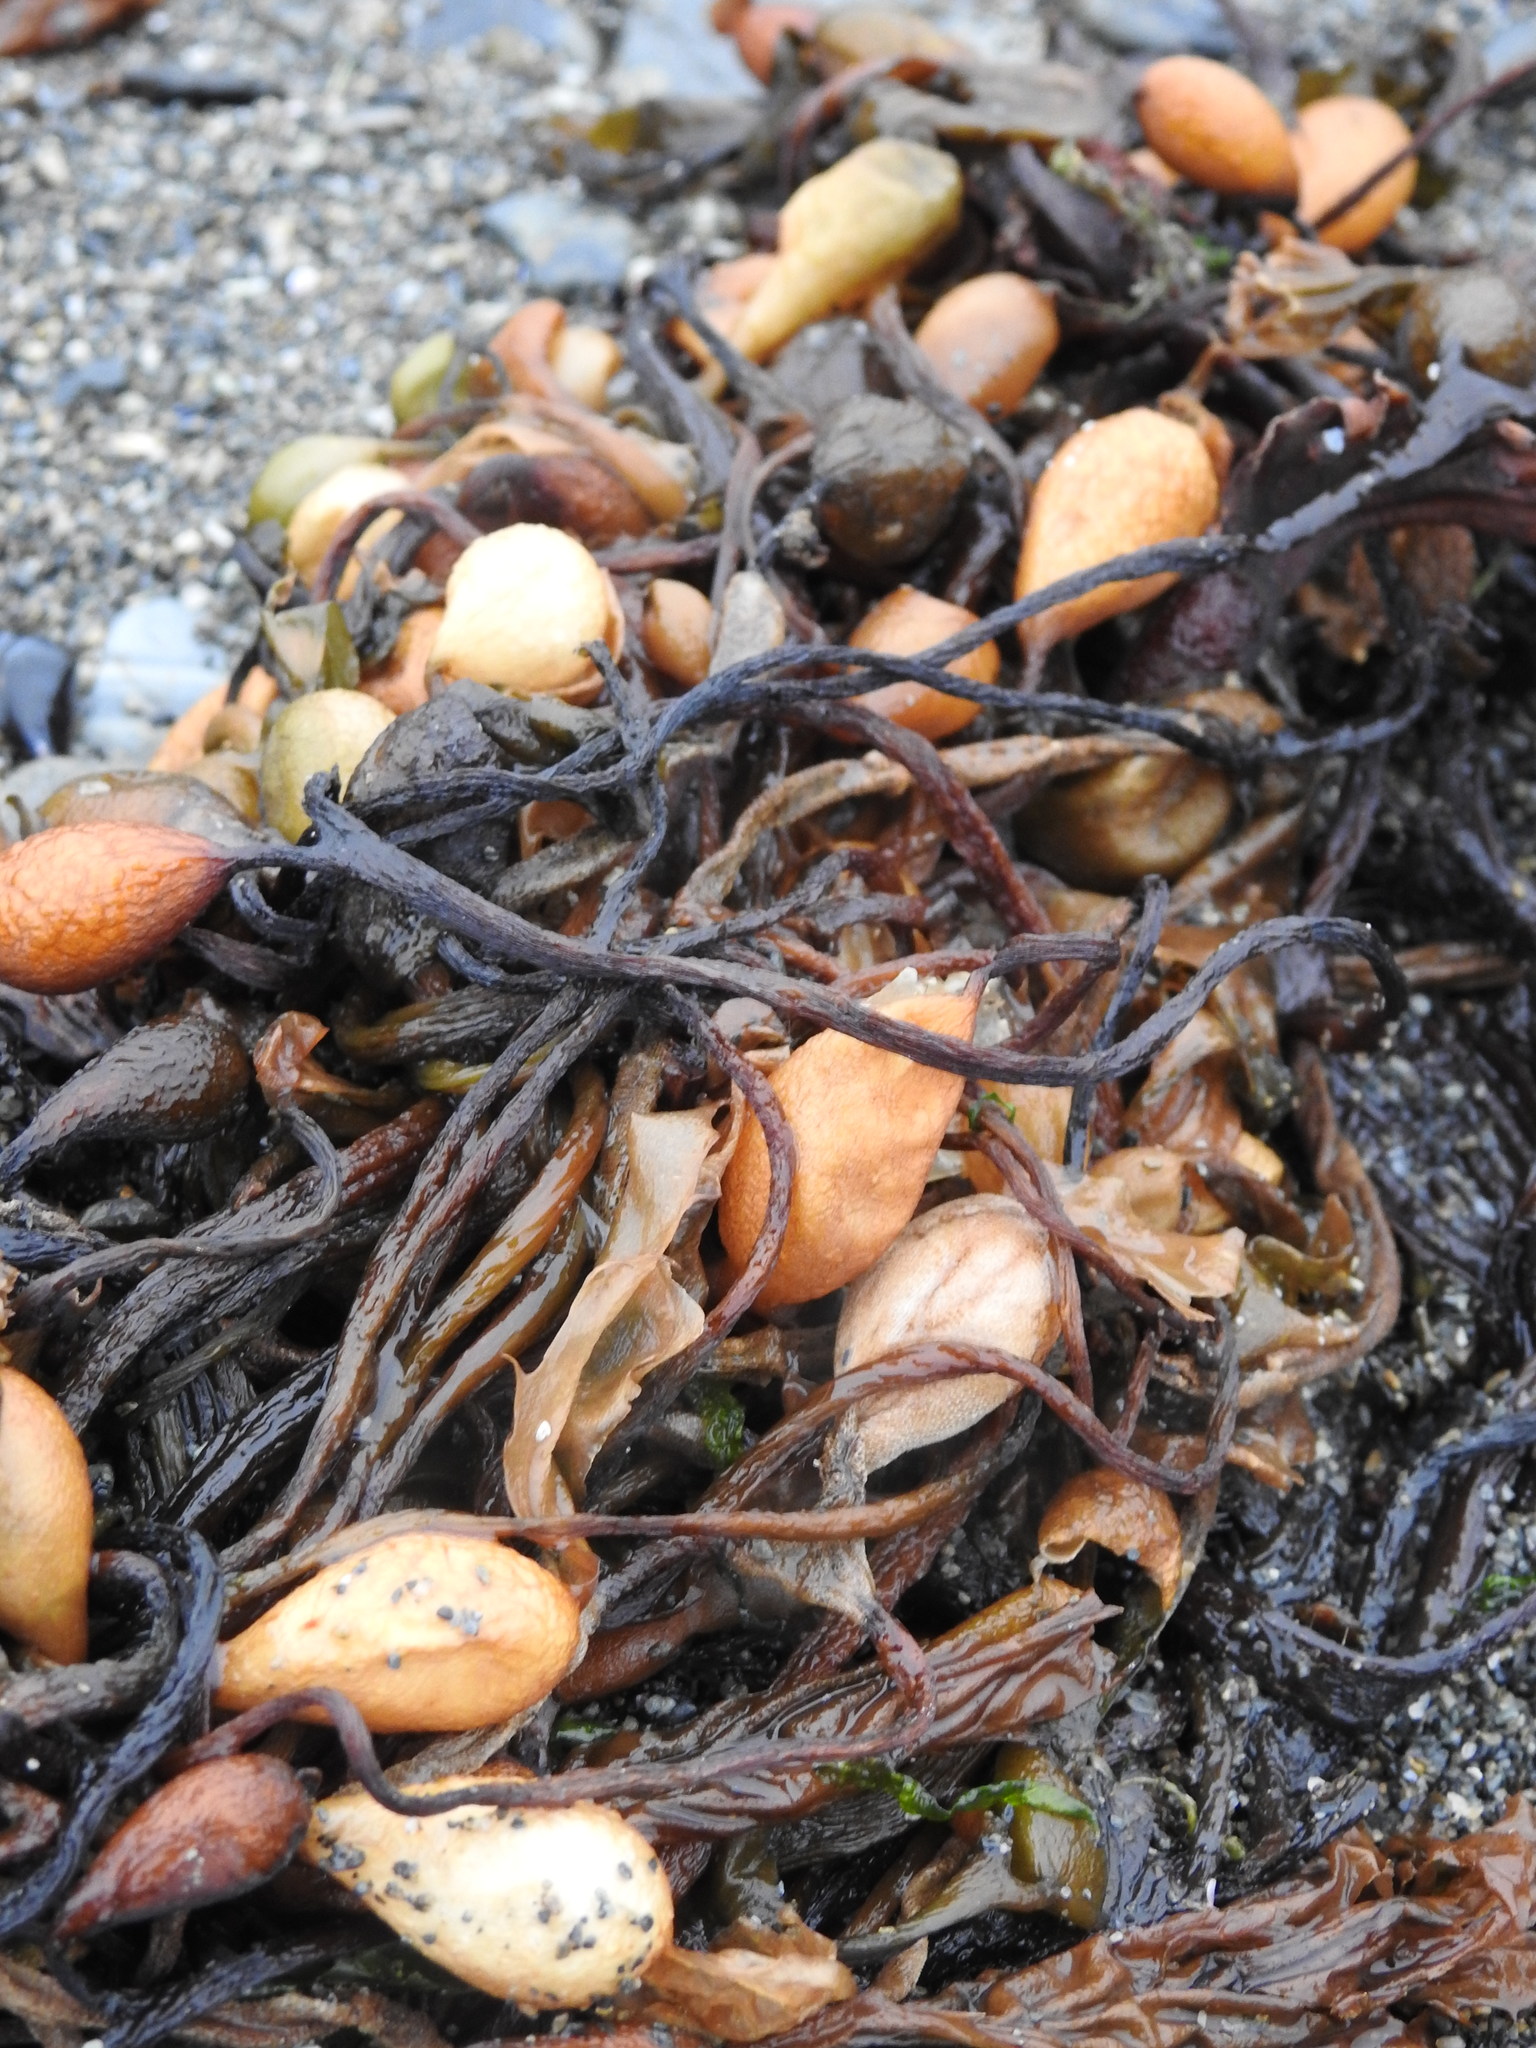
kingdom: Chromista
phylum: Ochrophyta
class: Phaeophyceae
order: Laminariales
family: Laminariaceae
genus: Macrocystis
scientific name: Macrocystis pyrifera
